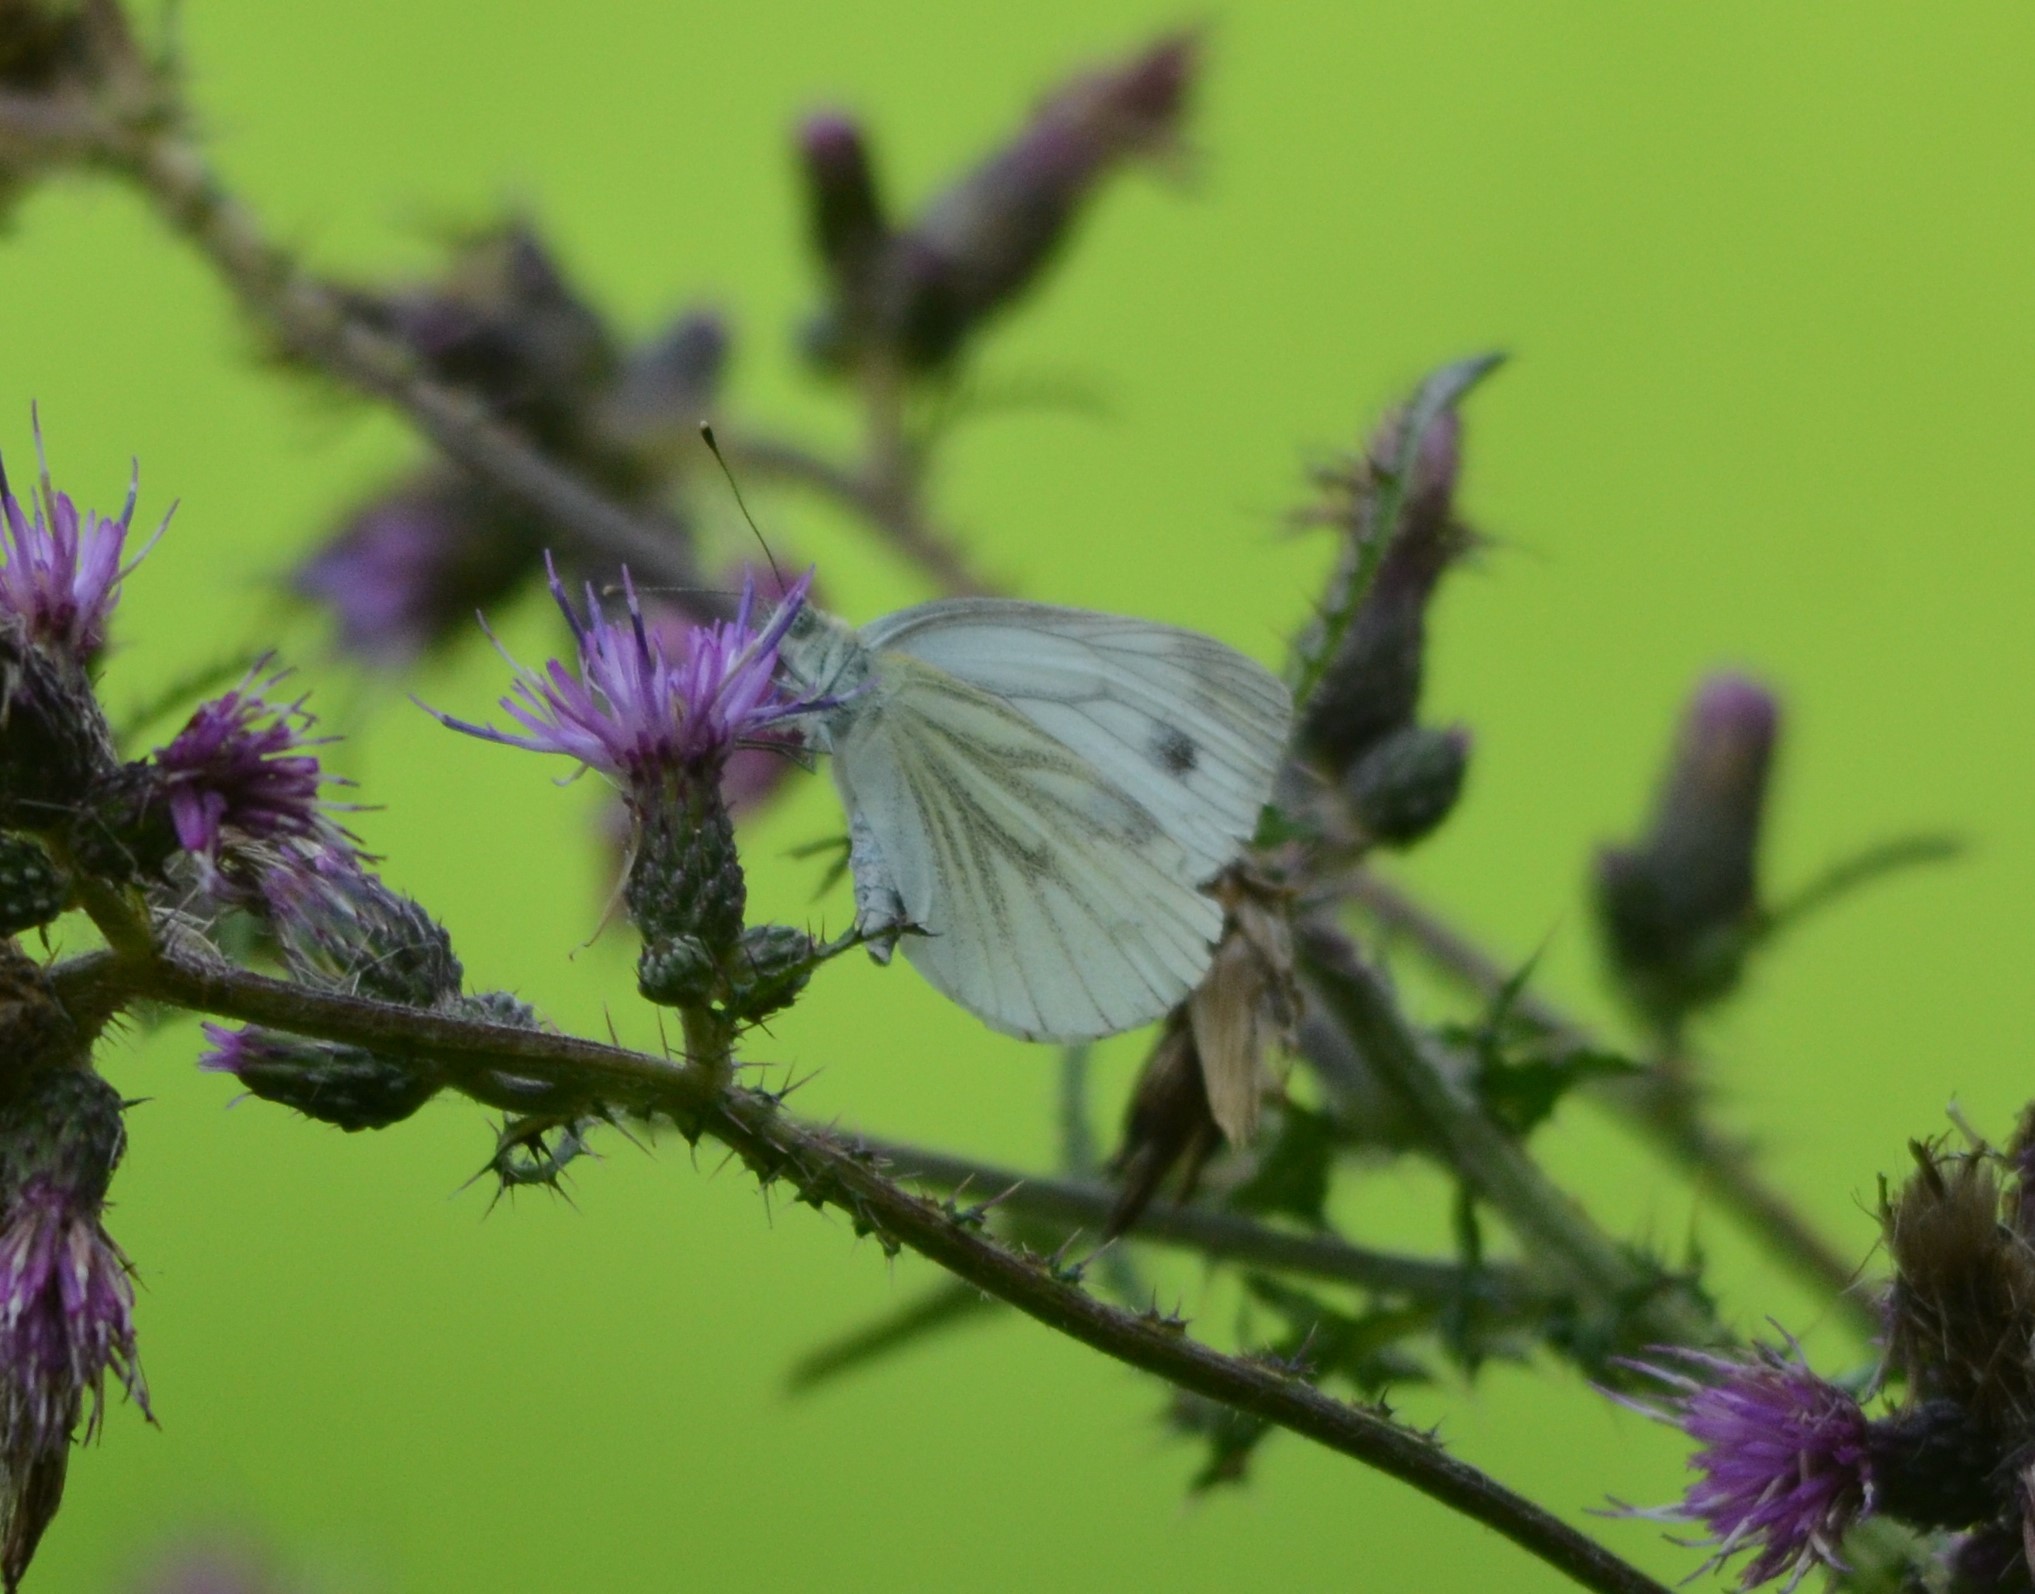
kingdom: Animalia
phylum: Arthropoda
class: Insecta
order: Lepidoptera
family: Pieridae
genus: Pieris
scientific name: Pieris napi
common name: Green-veined white
